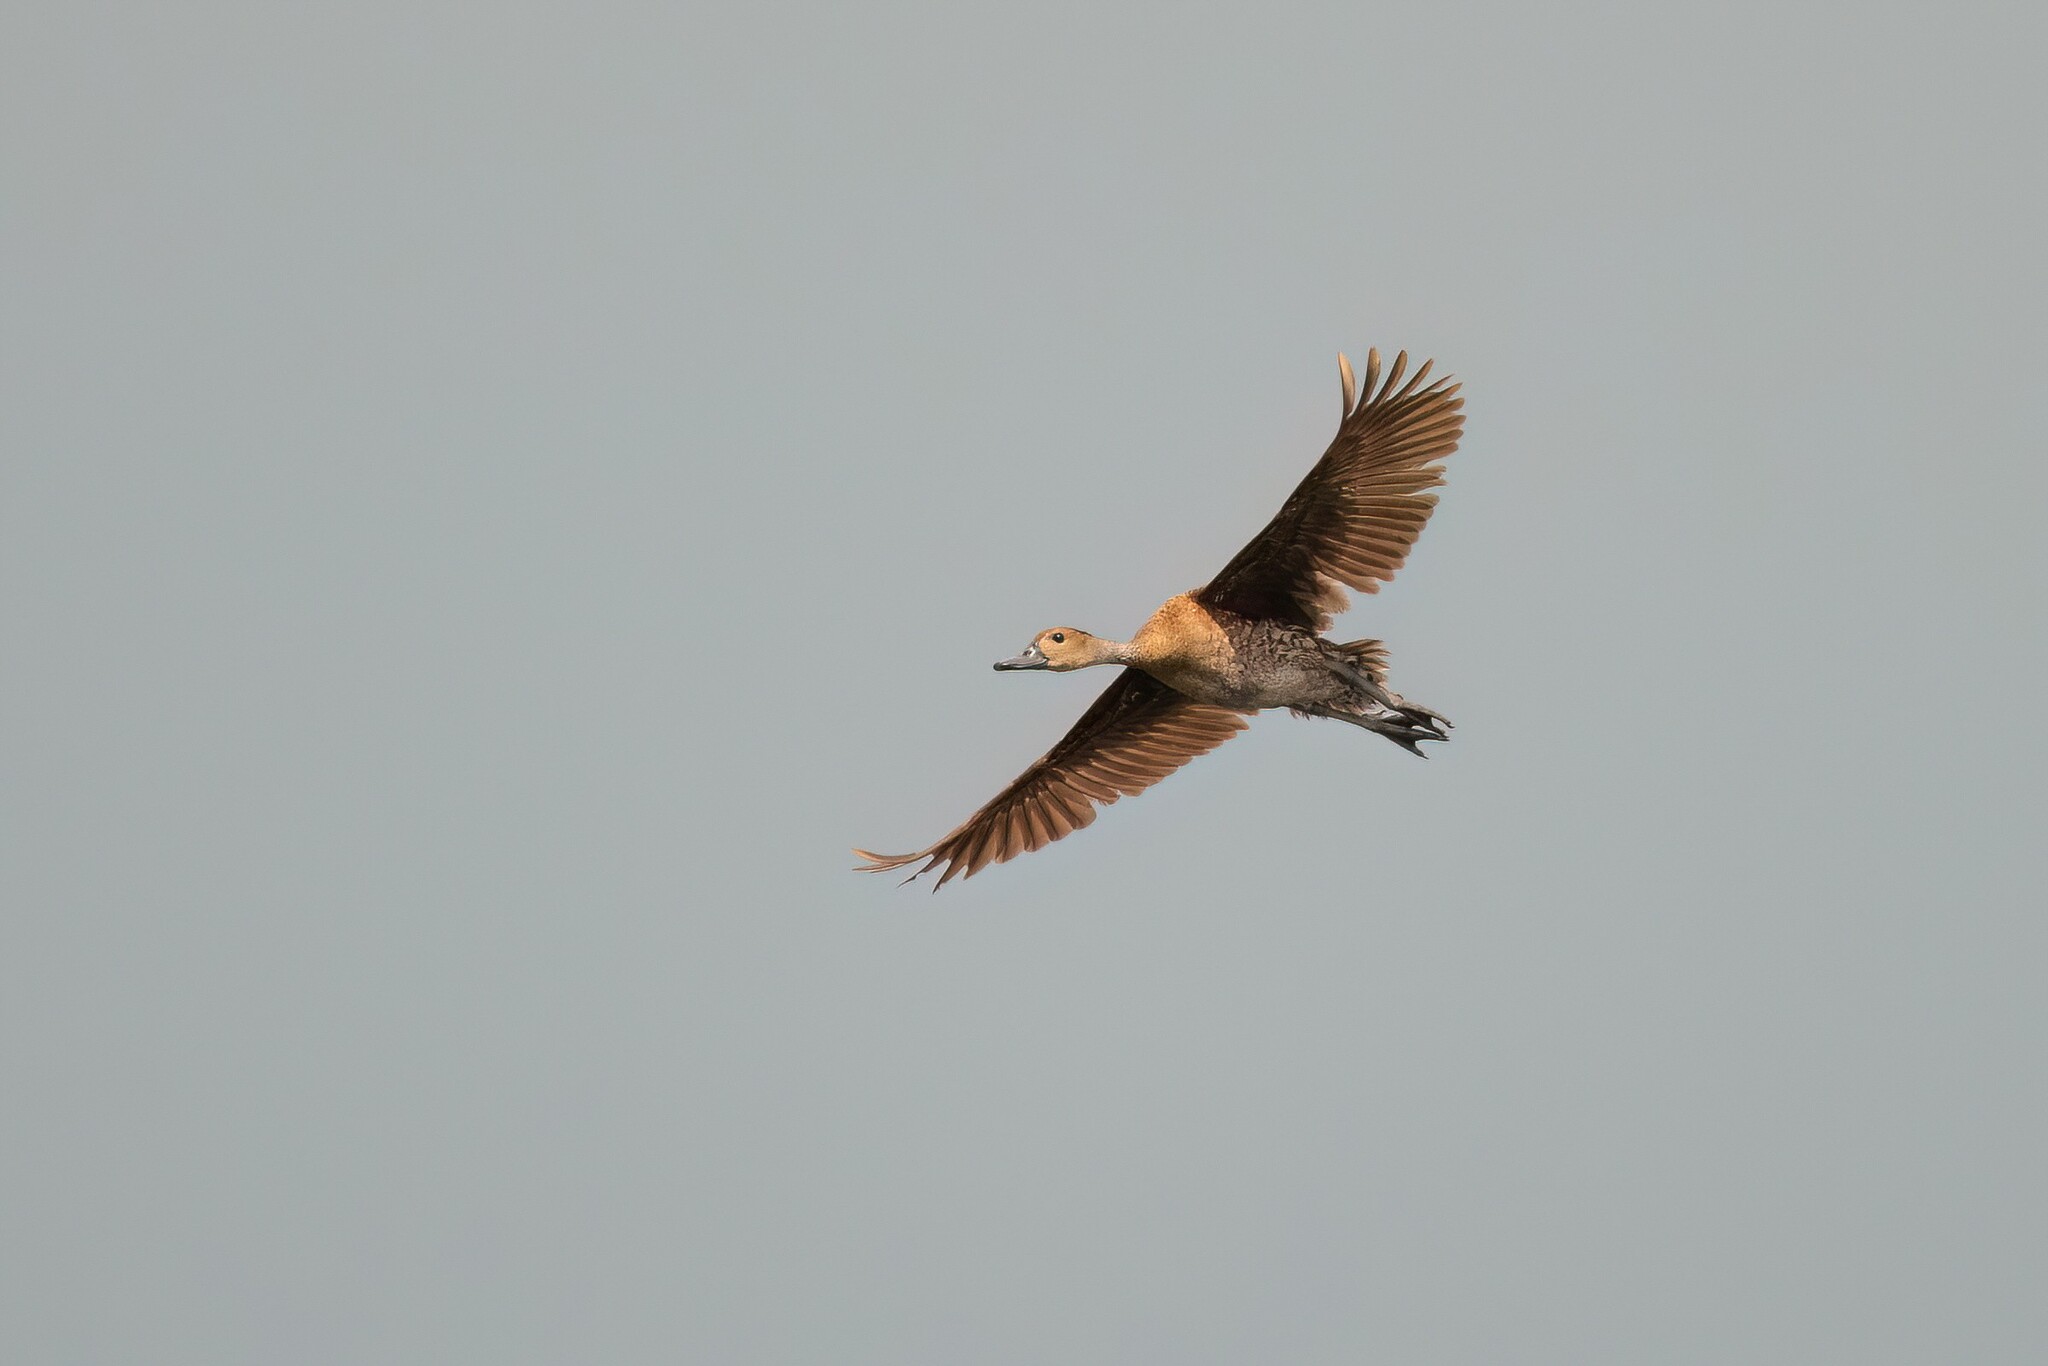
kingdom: Animalia
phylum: Chordata
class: Aves
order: Anseriformes
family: Anatidae
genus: Dendrocygna
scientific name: Dendrocygna arborea
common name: West indian whistling duck
